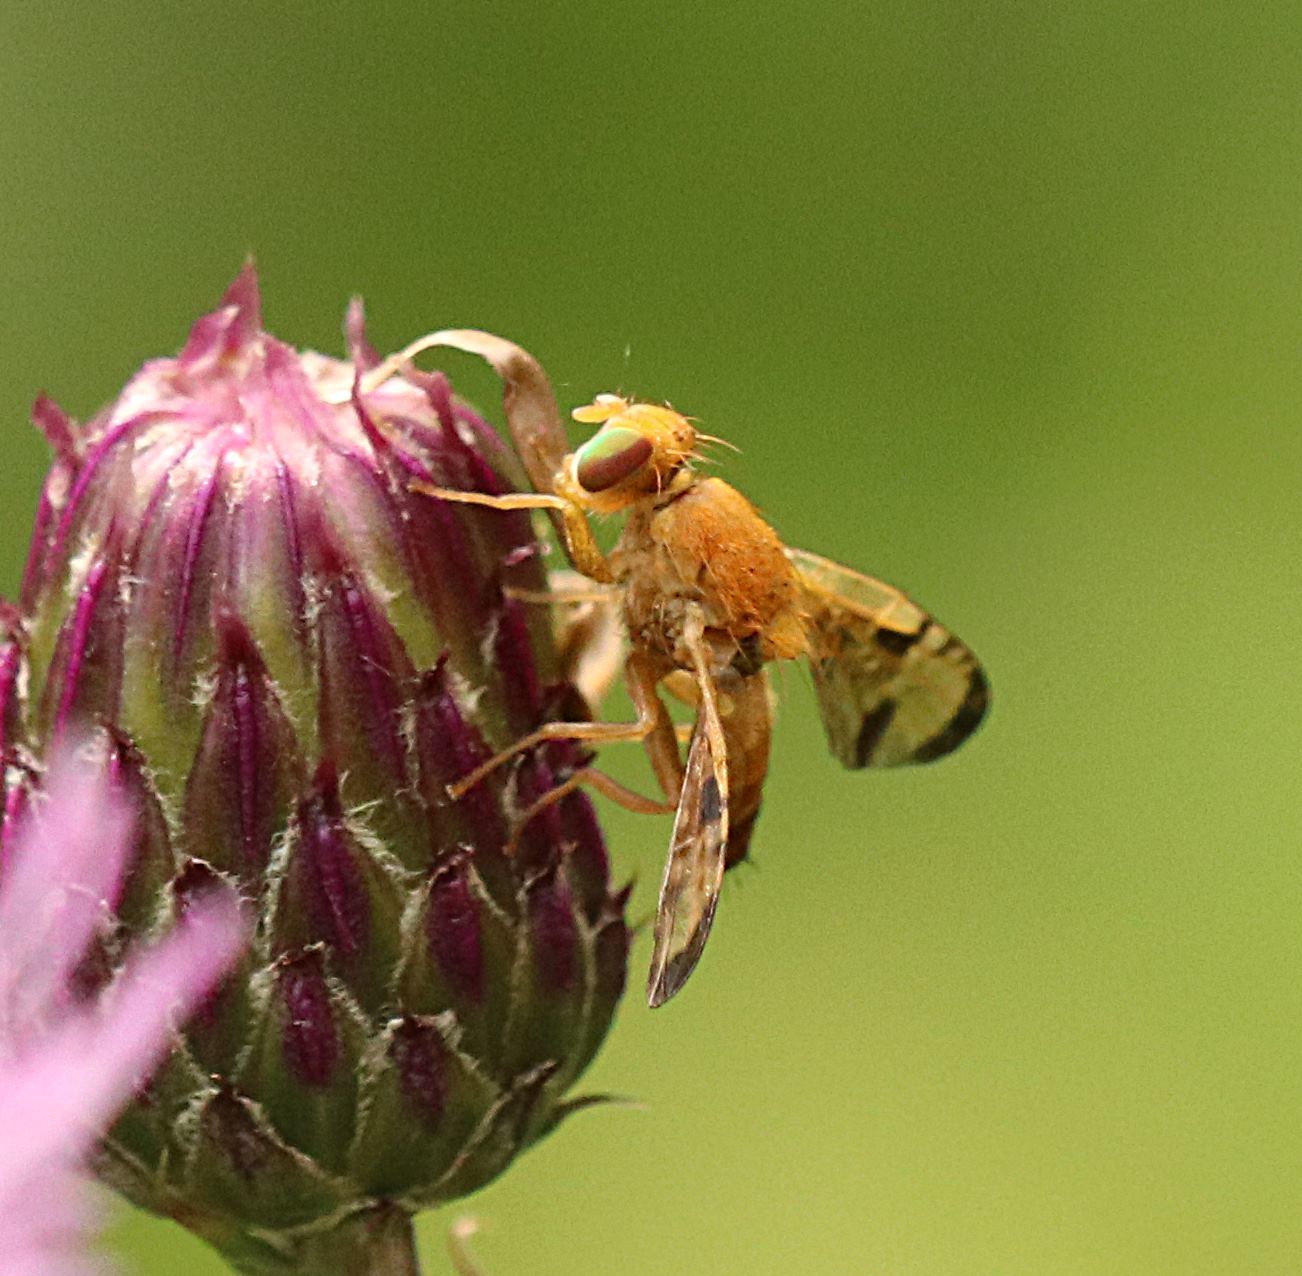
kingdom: Animalia
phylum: Arthropoda
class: Insecta
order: Diptera
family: Tephritidae
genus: Xyphosia
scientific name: Xyphosia miliaria
